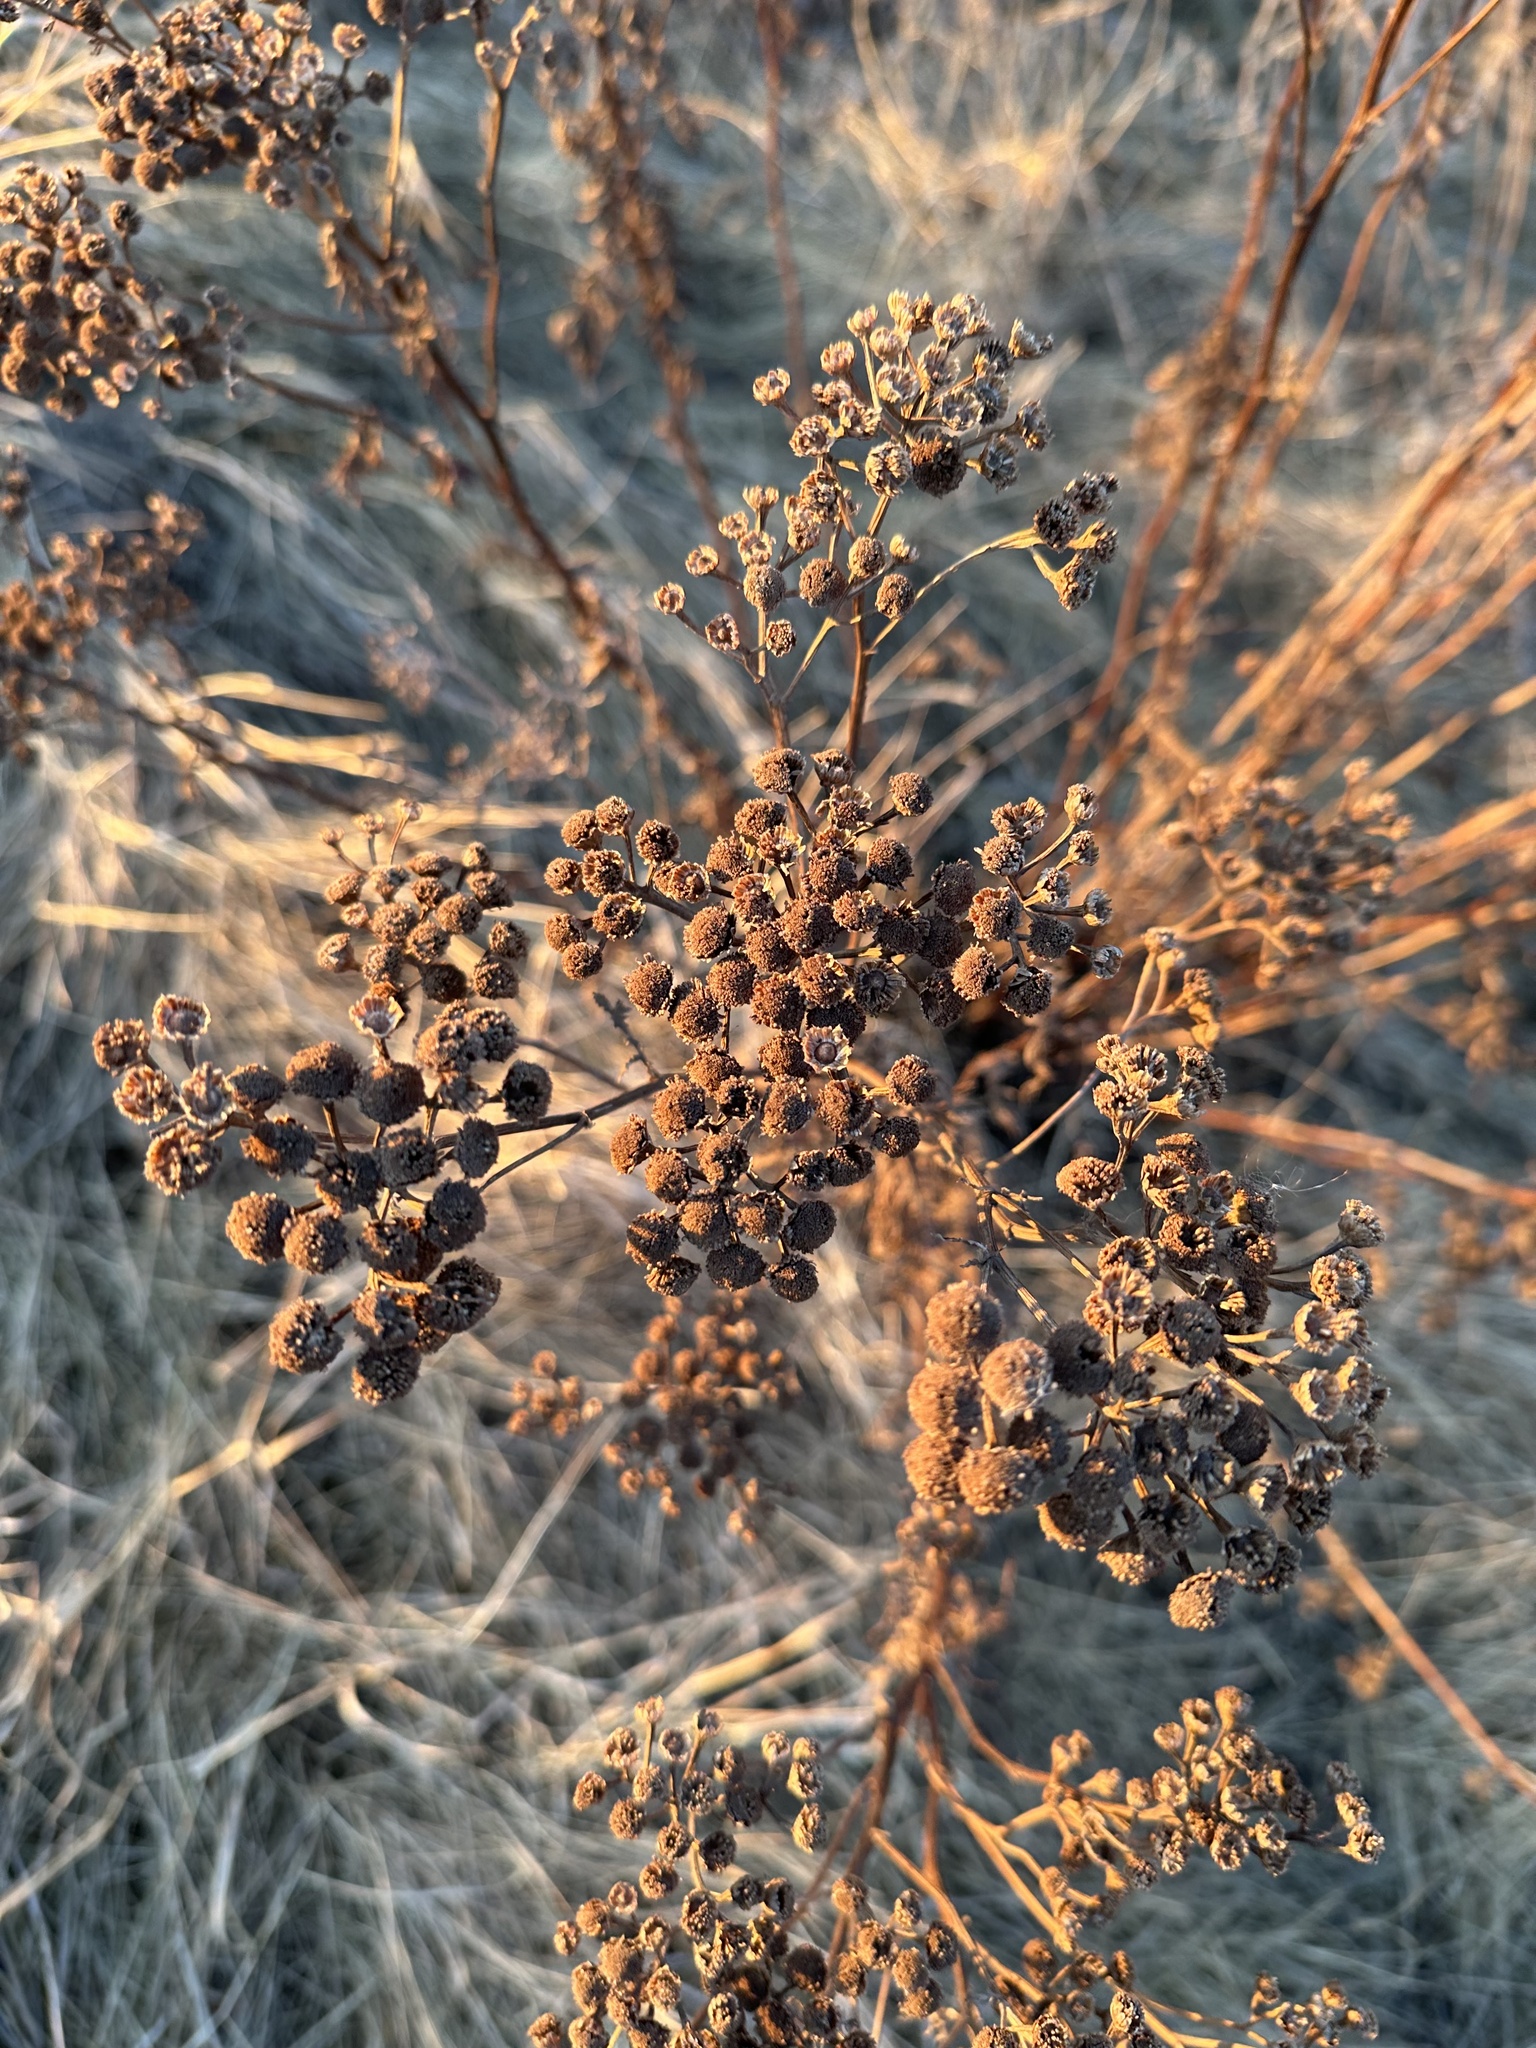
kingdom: Plantae
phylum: Tracheophyta
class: Magnoliopsida
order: Asterales
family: Asteraceae
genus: Tanacetum
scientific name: Tanacetum vulgare
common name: Common tansy
